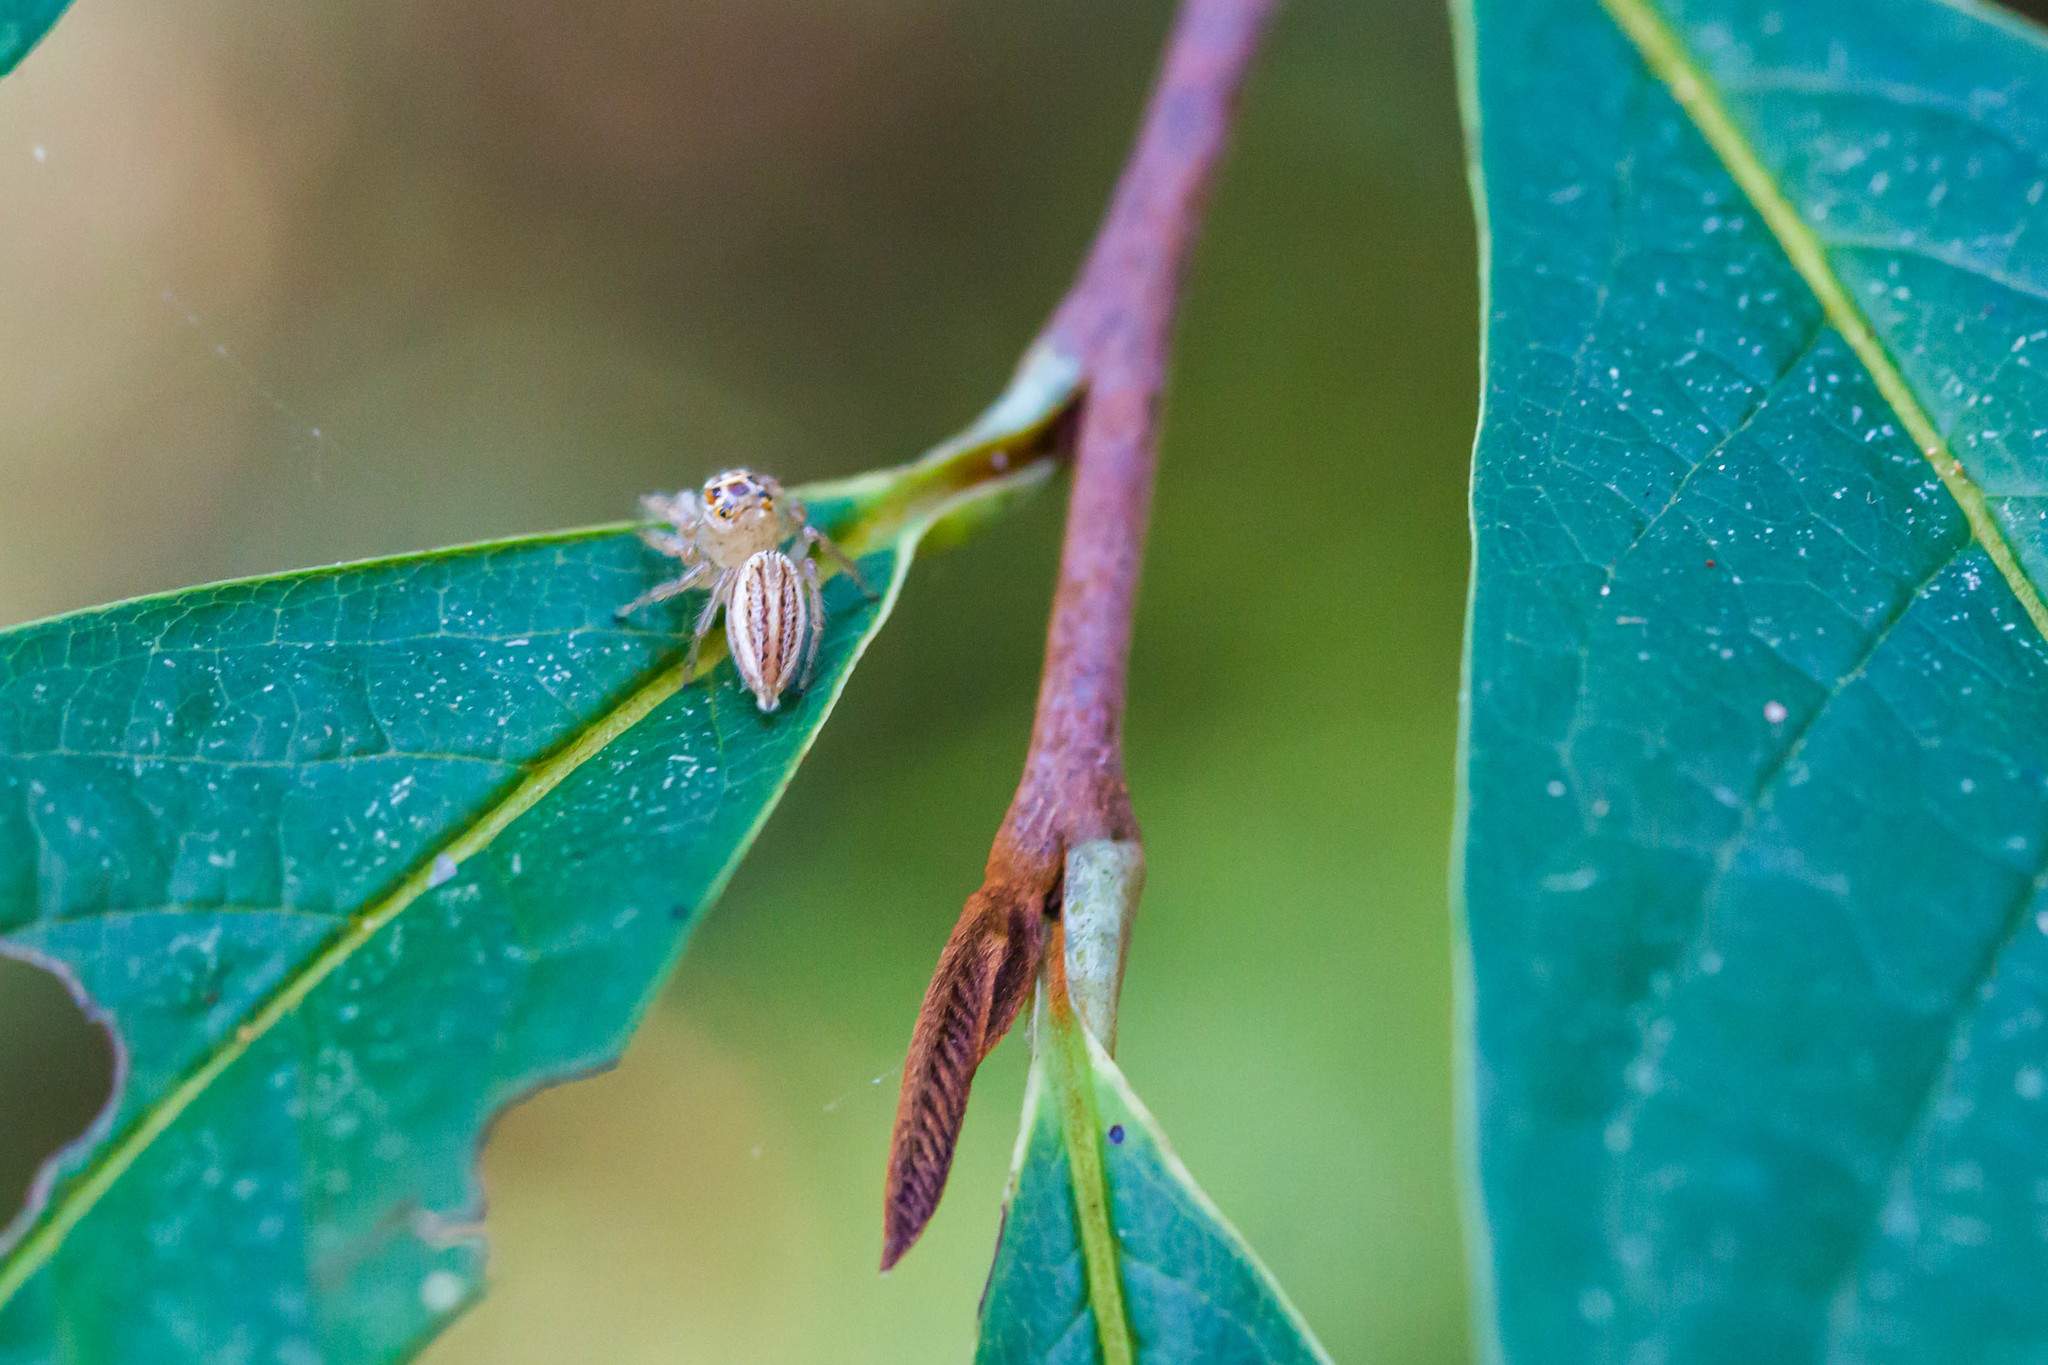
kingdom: Animalia
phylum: Arthropoda
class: Arachnida
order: Araneae
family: Salticidae
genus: Colonus
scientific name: Colonus sylvanus
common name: Jumping spiders
